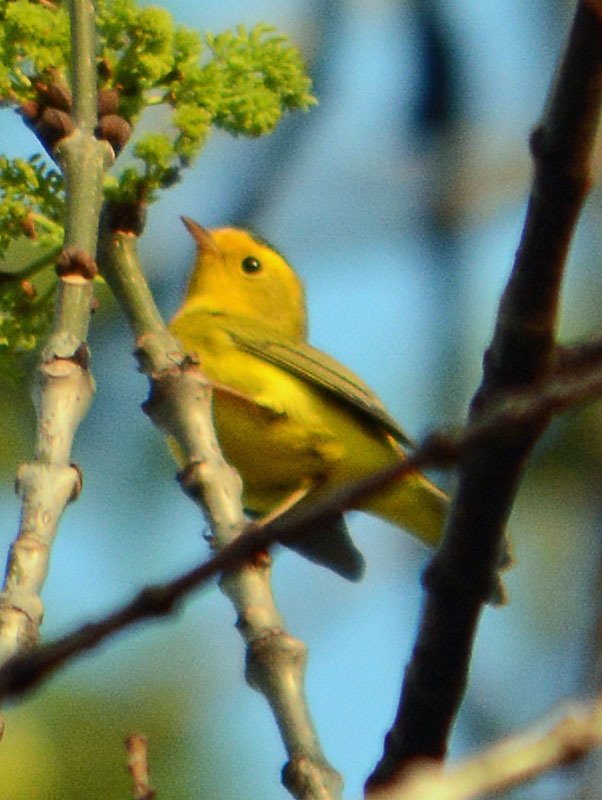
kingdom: Animalia
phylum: Chordata
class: Aves
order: Passeriformes
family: Parulidae
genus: Cardellina
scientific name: Cardellina pusilla
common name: Wilson's warbler
